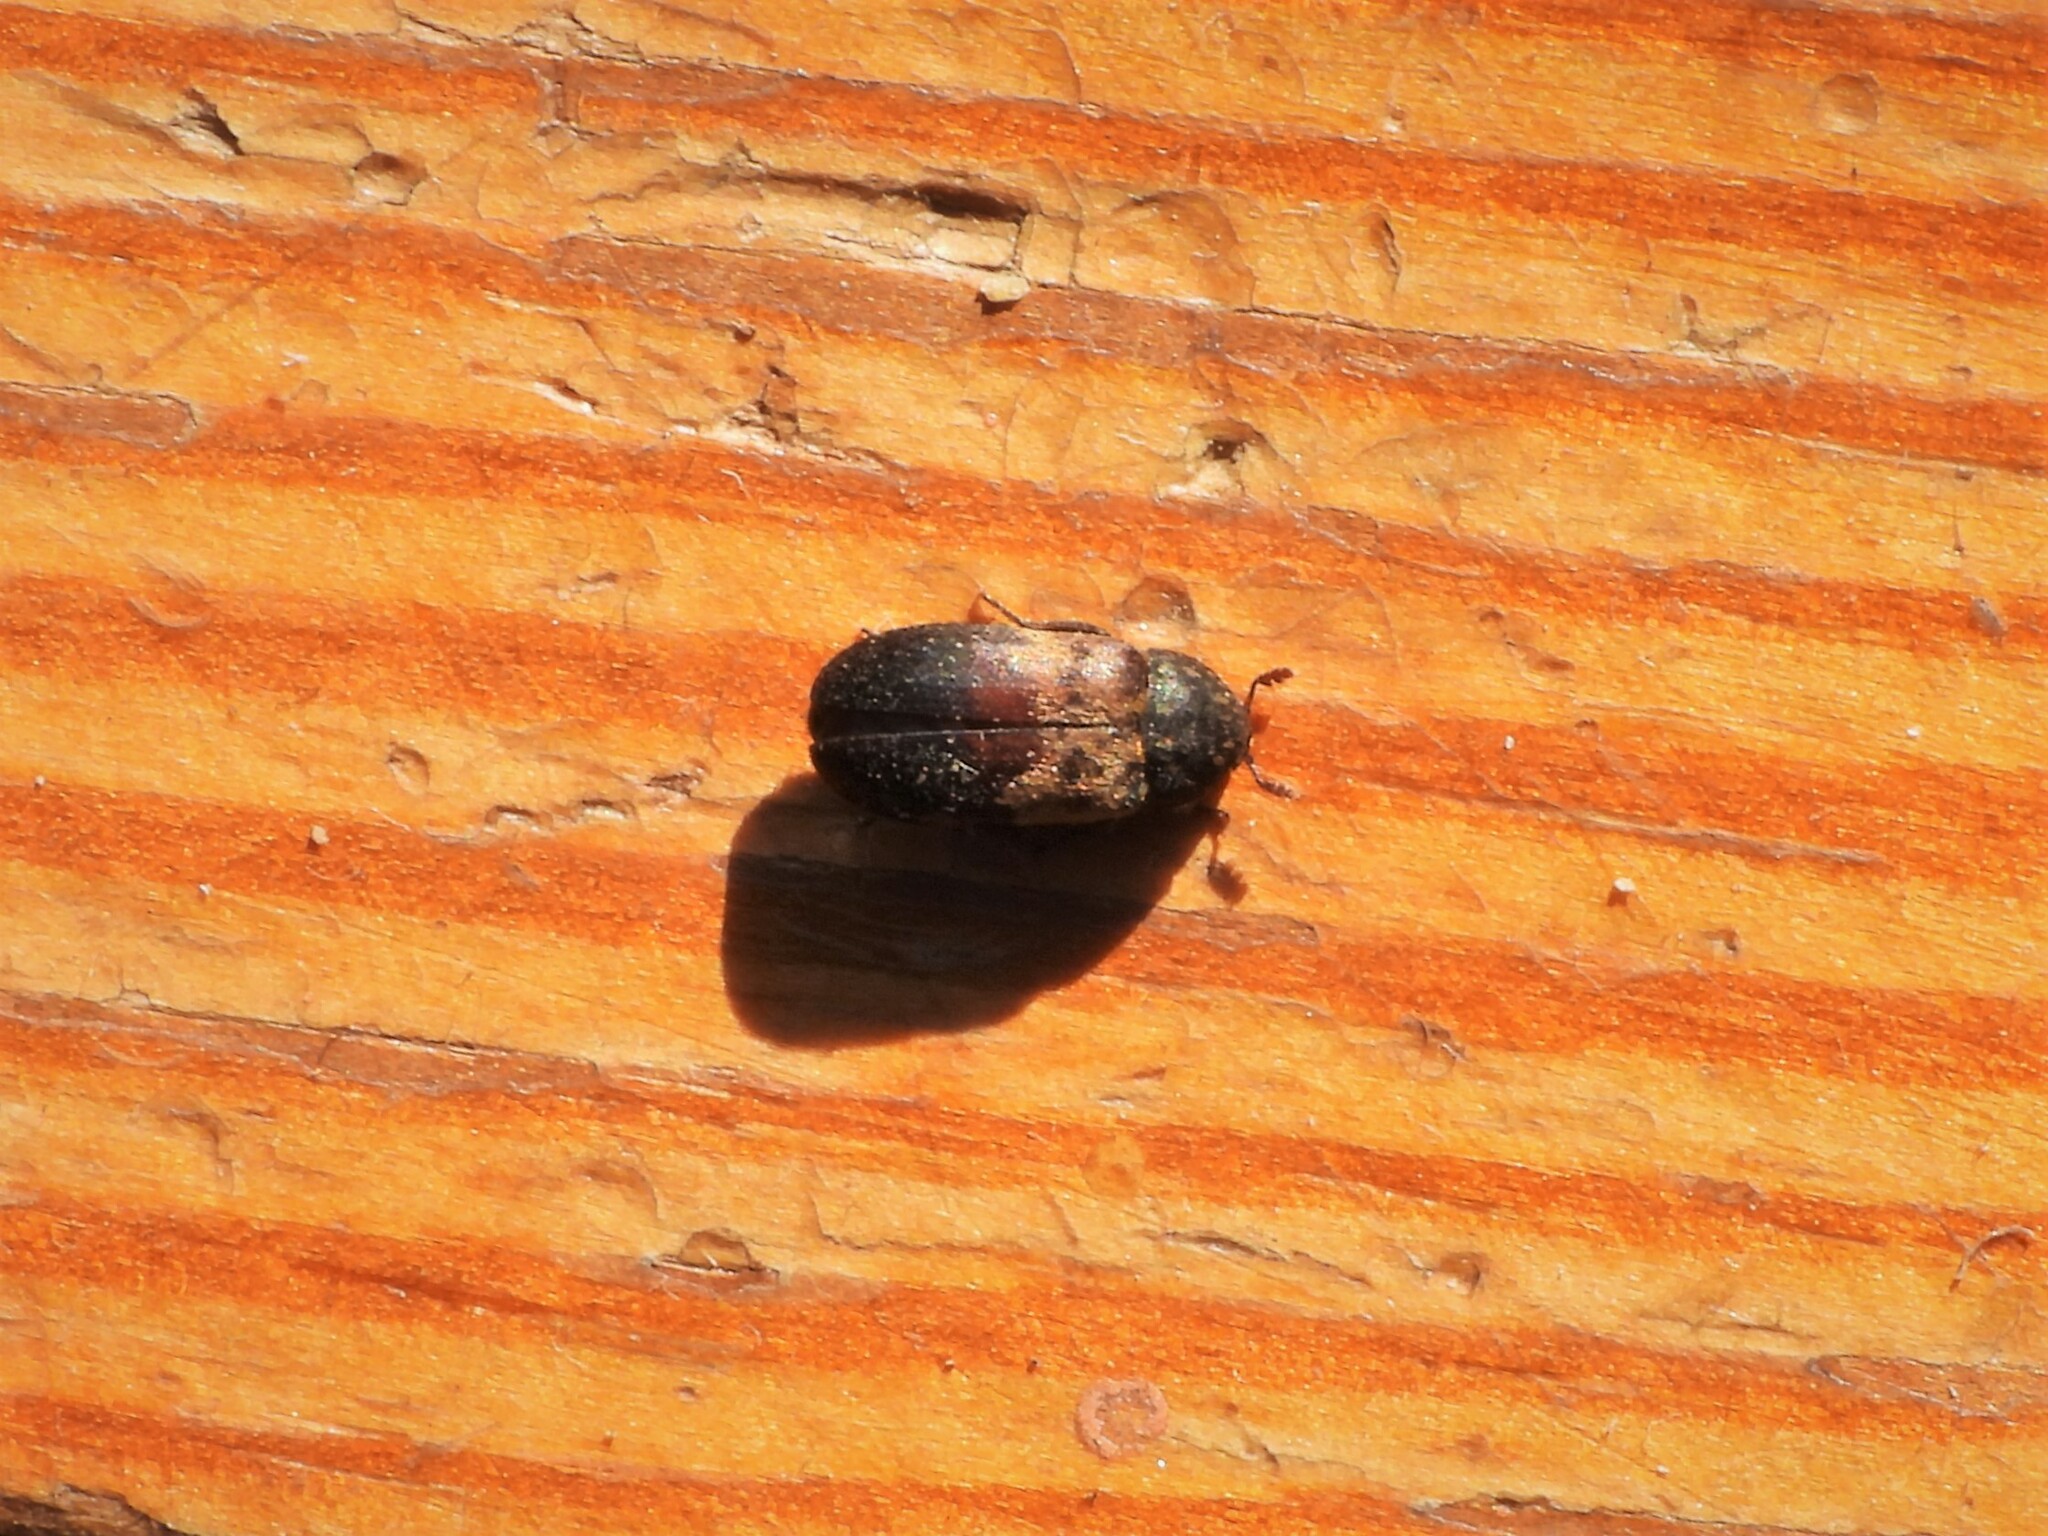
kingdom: Animalia
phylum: Arthropoda
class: Insecta
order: Coleoptera
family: Dermestidae
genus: Dermestes
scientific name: Dermestes lardarius
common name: Larder beetle
